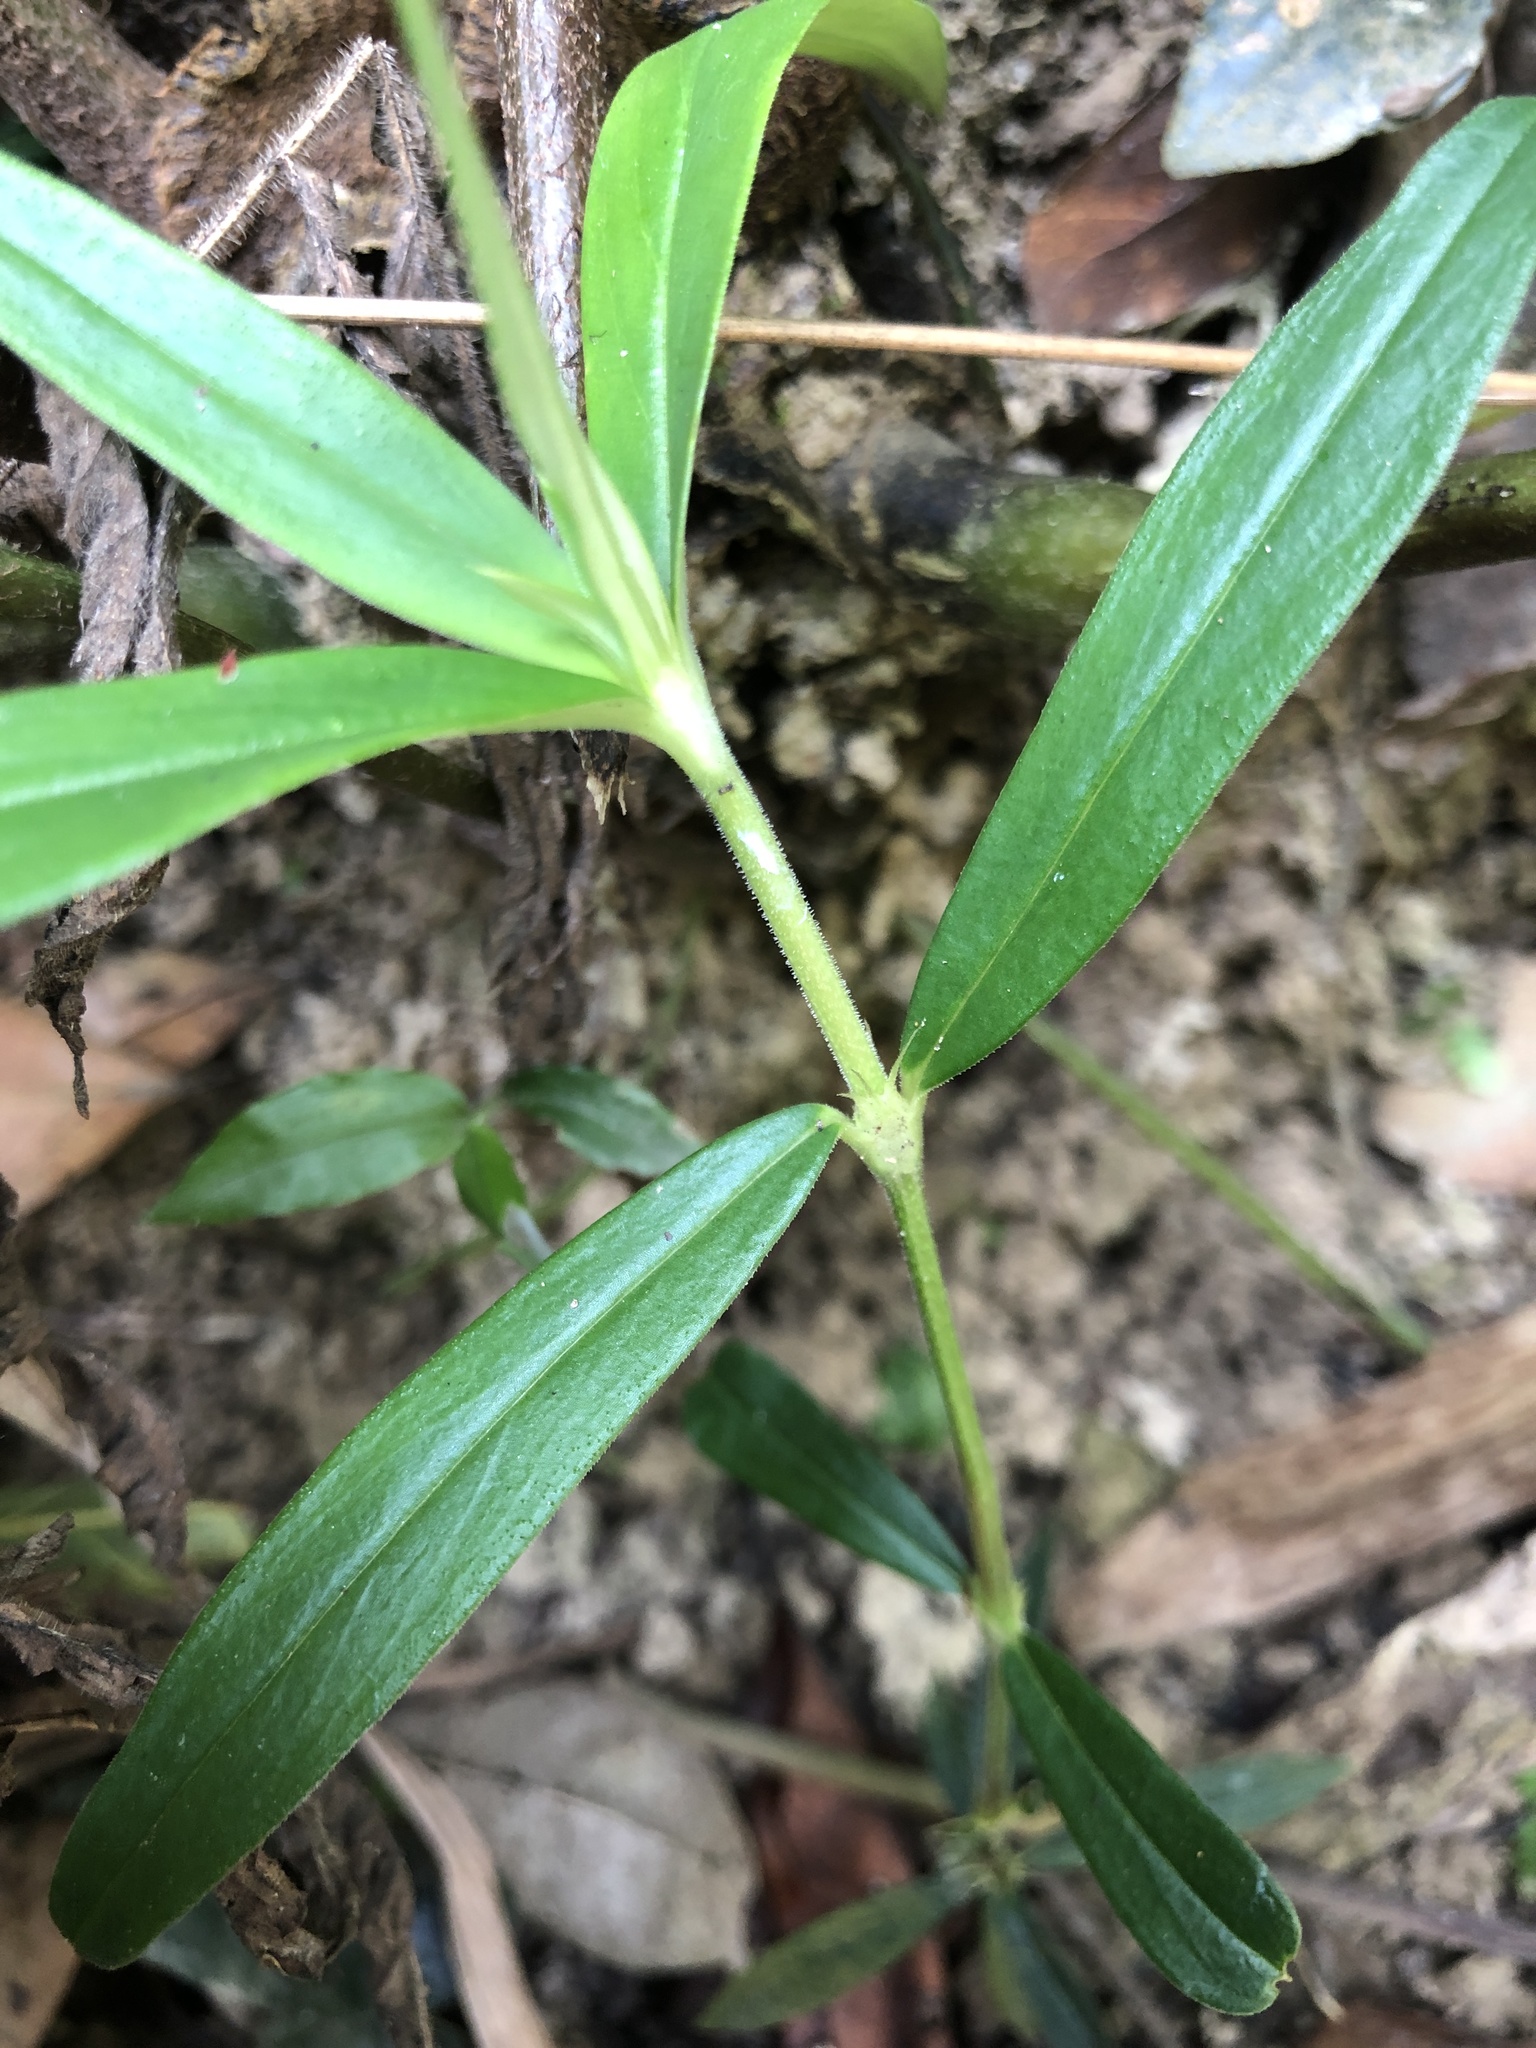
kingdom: Plantae
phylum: Tracheophyta
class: Magnoliopsida
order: Gentianales
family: Rubiaceae
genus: Scleromitrion
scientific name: Scleromitrion verticillatum
